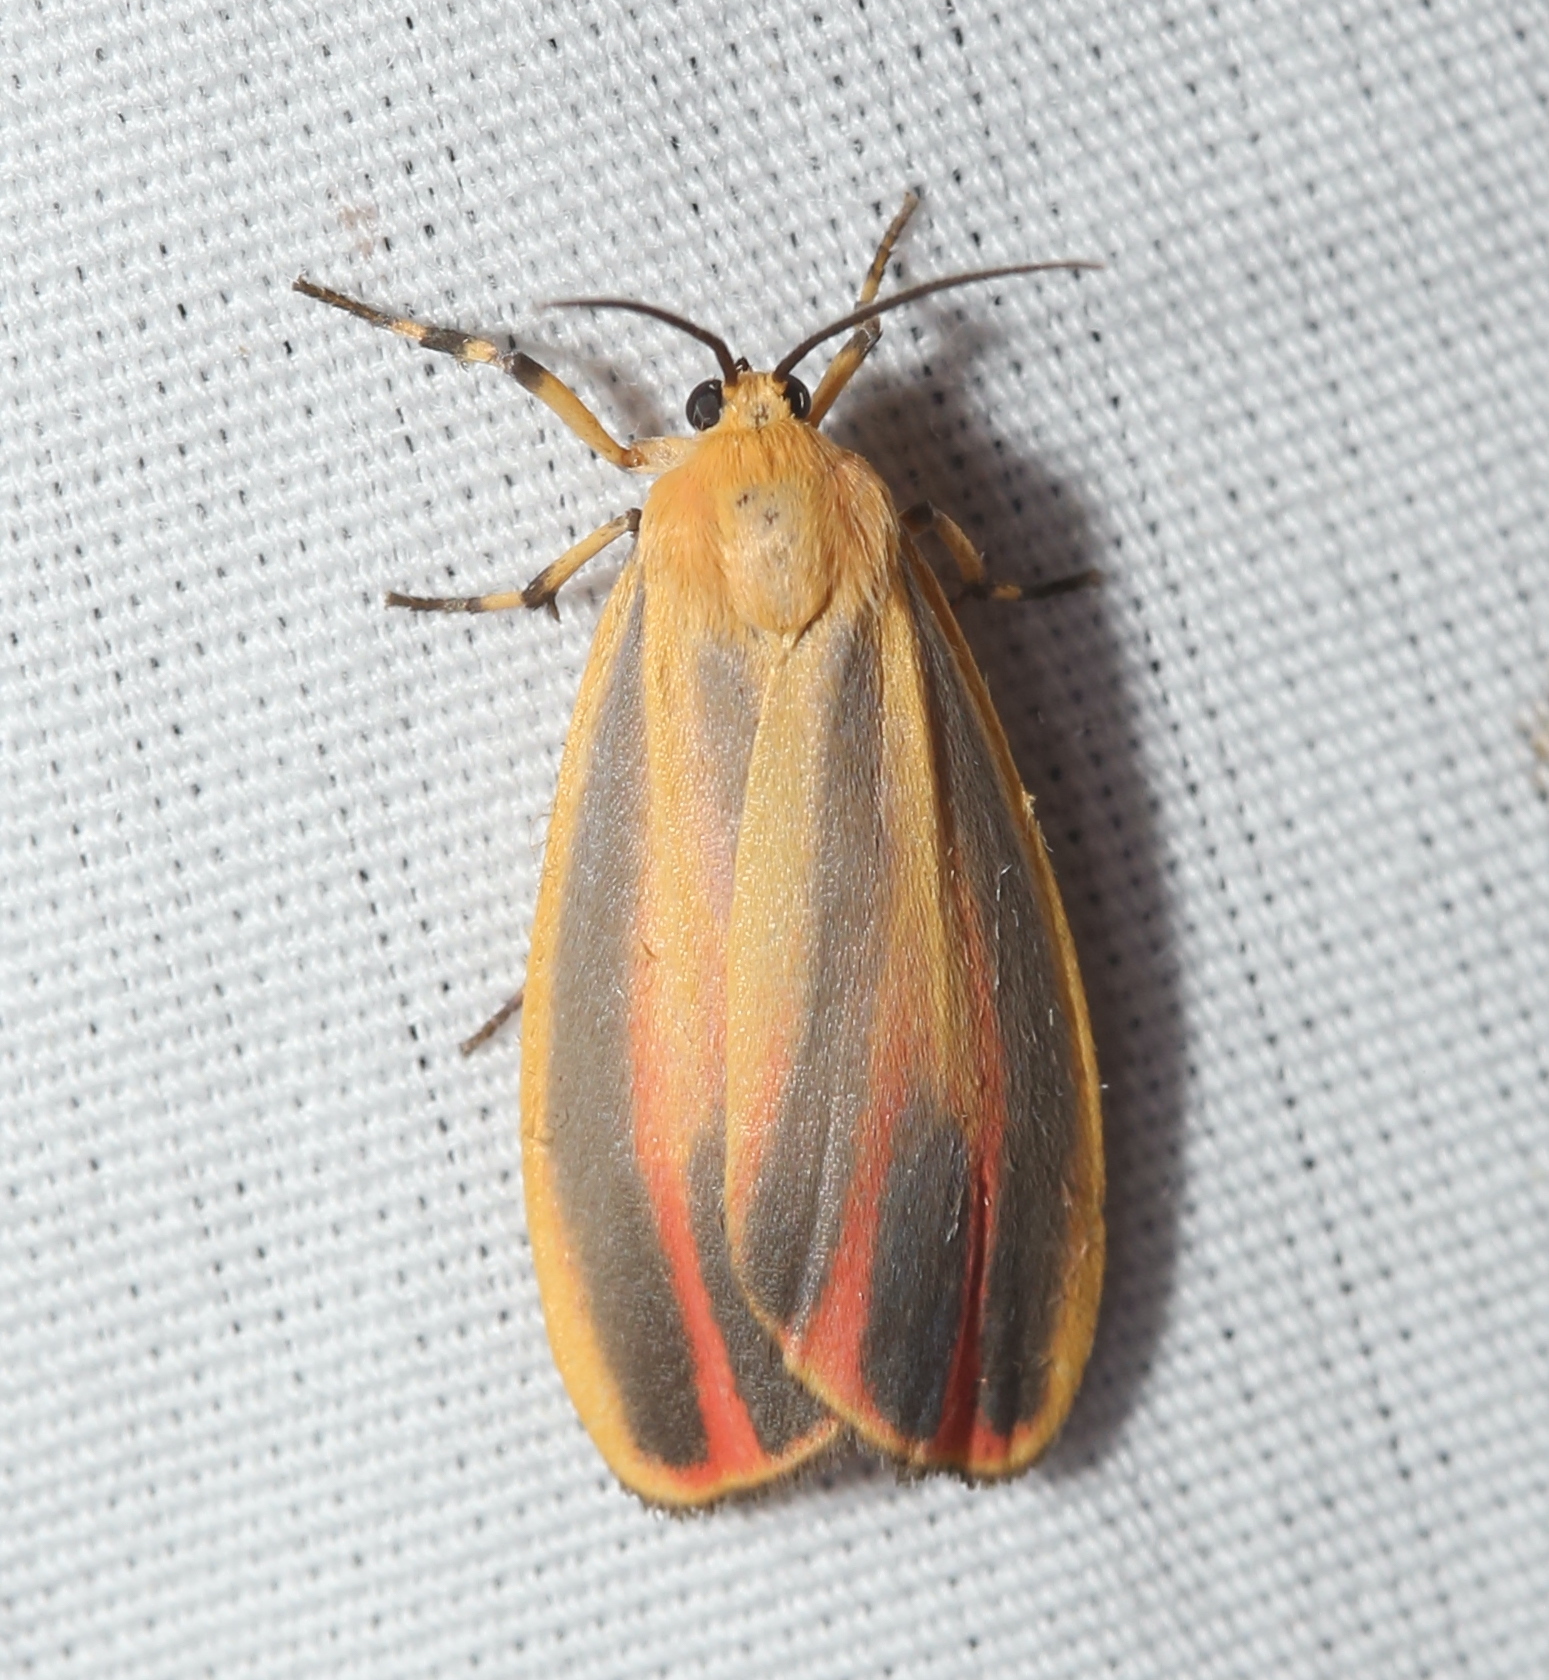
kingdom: Animalia
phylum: Arthropoda
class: Insecta
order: Lepidoptera
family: Erebidae
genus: Hypoprepia
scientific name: Hypoprepia fucosa
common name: Painted lichen moth
